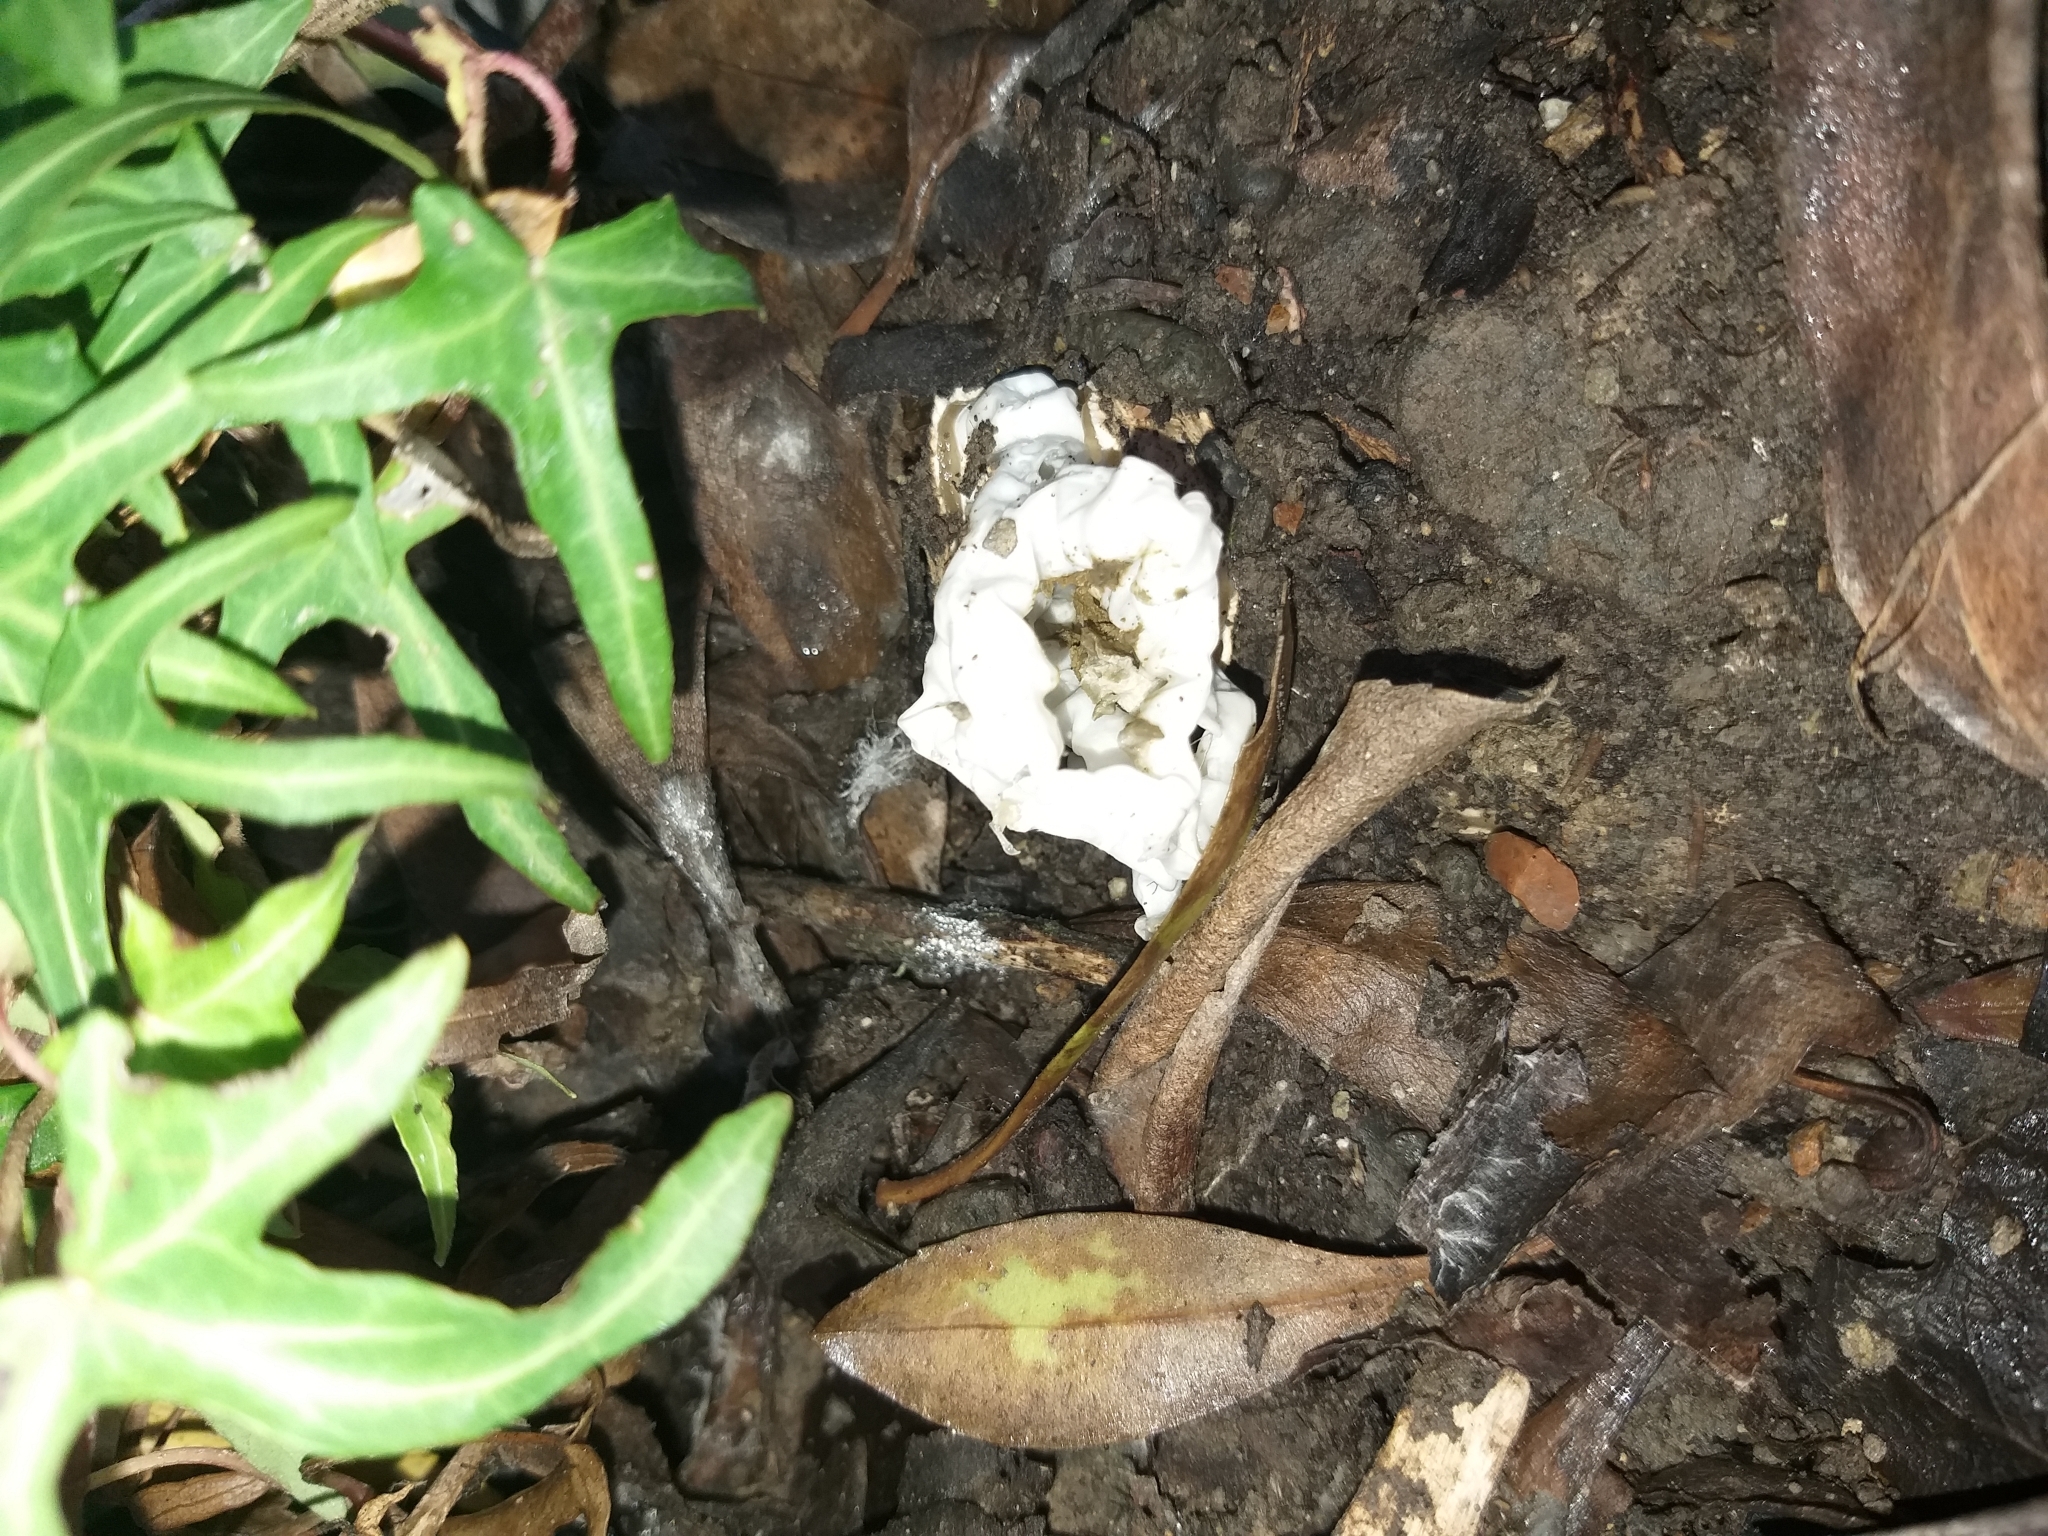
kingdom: Fungi
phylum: Basidiomycota
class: Agaricomycetes
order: Phallales
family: Phallaceae
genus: Ileodictyon
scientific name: Ileodictyon cibarium
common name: Basket fungus
